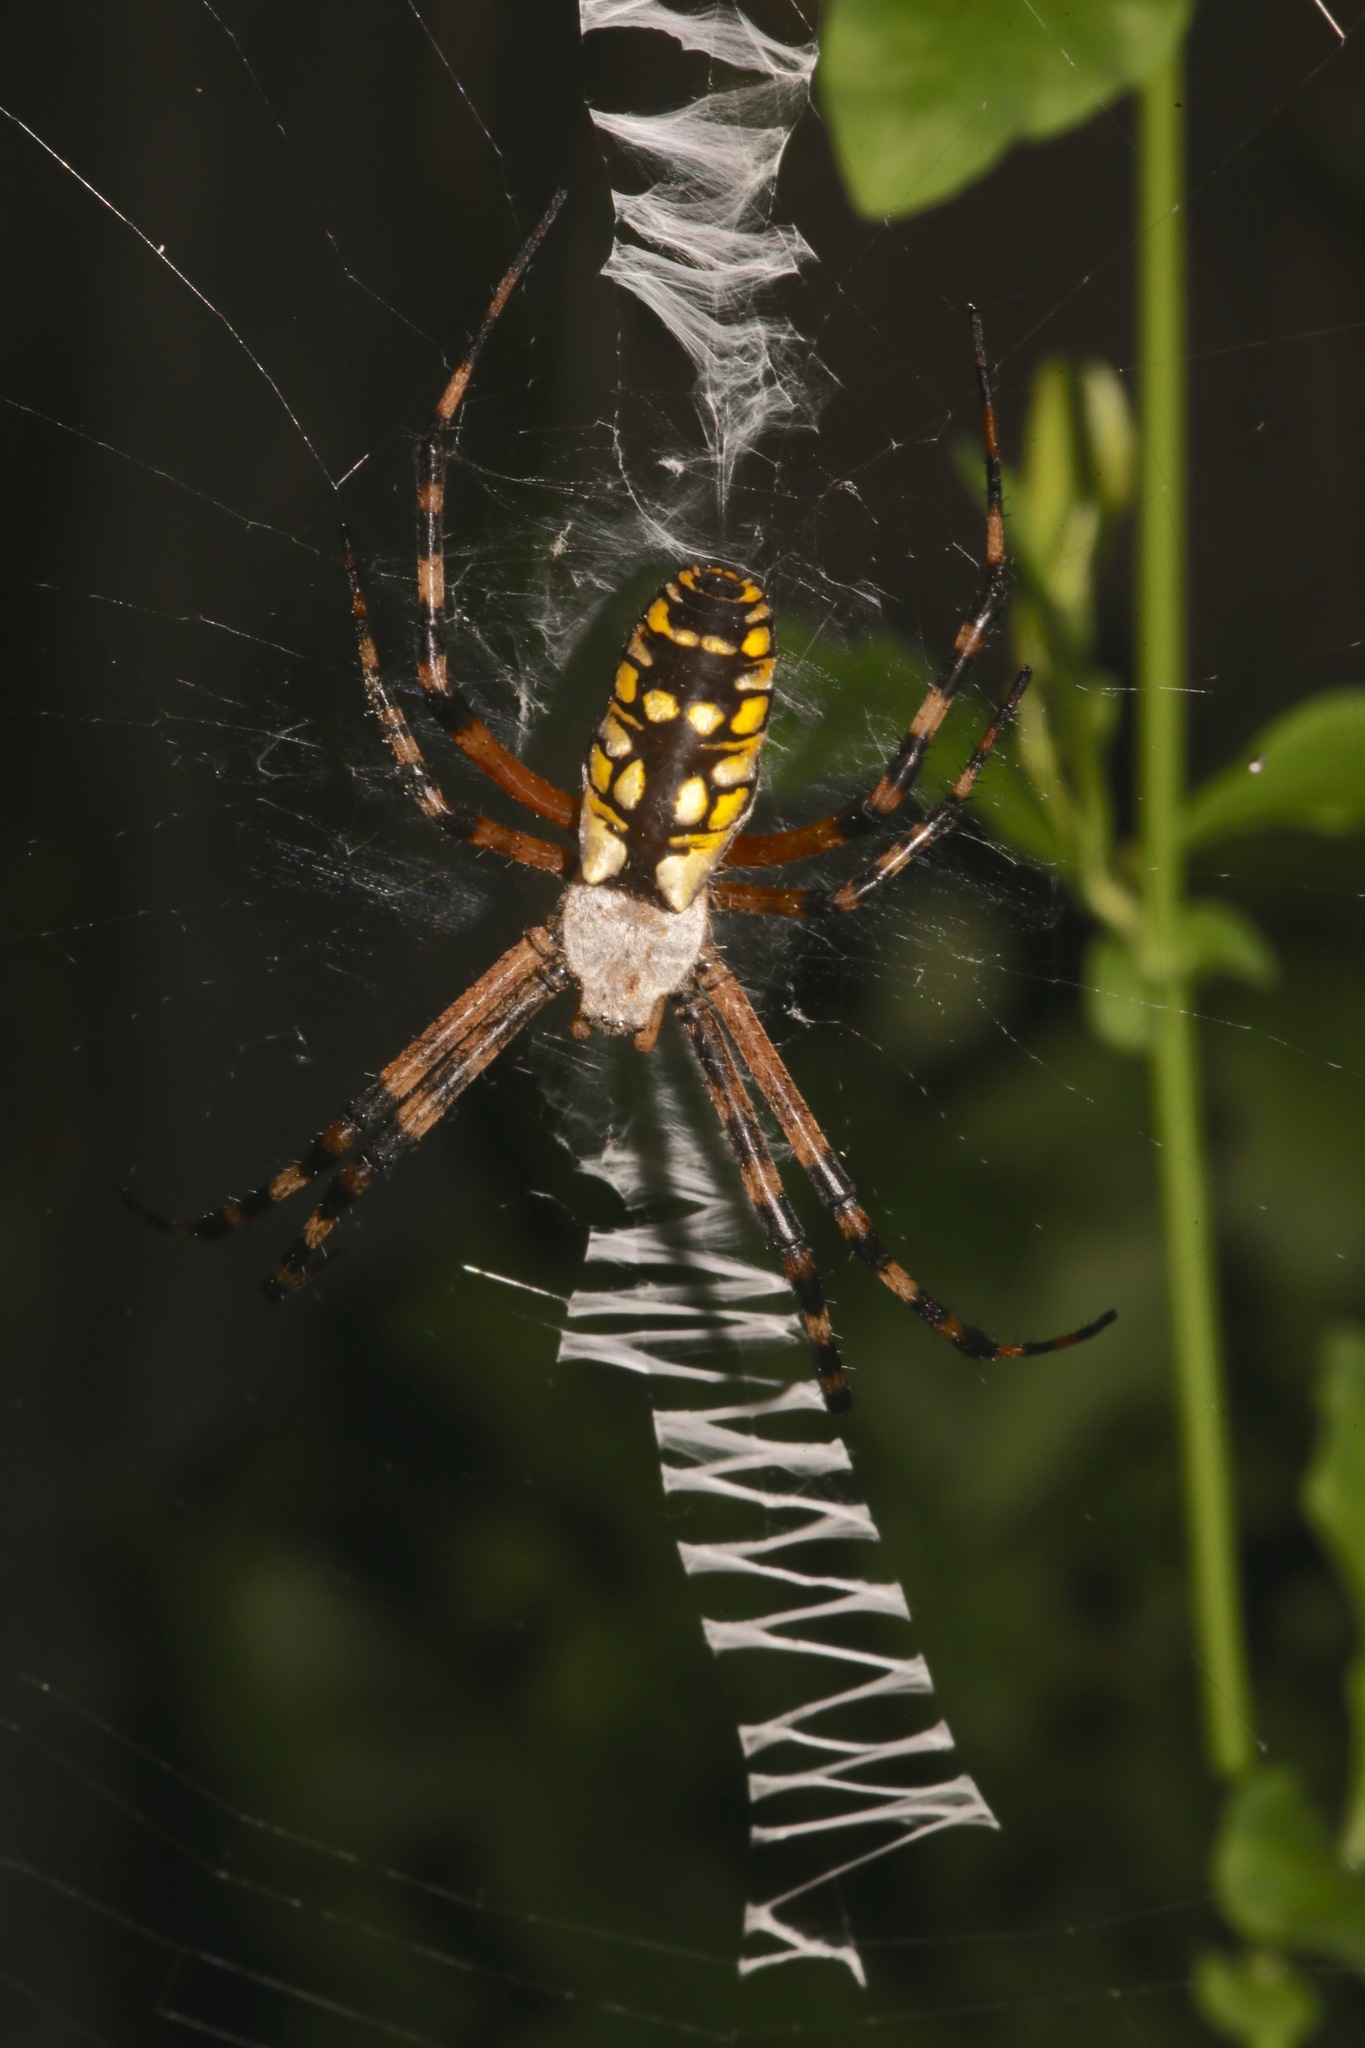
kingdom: Animalia
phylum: Arthropoda
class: Arachnida
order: Araneae
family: Araneidae
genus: Argiope
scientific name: Argiope aurantia
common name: Orb weavers
